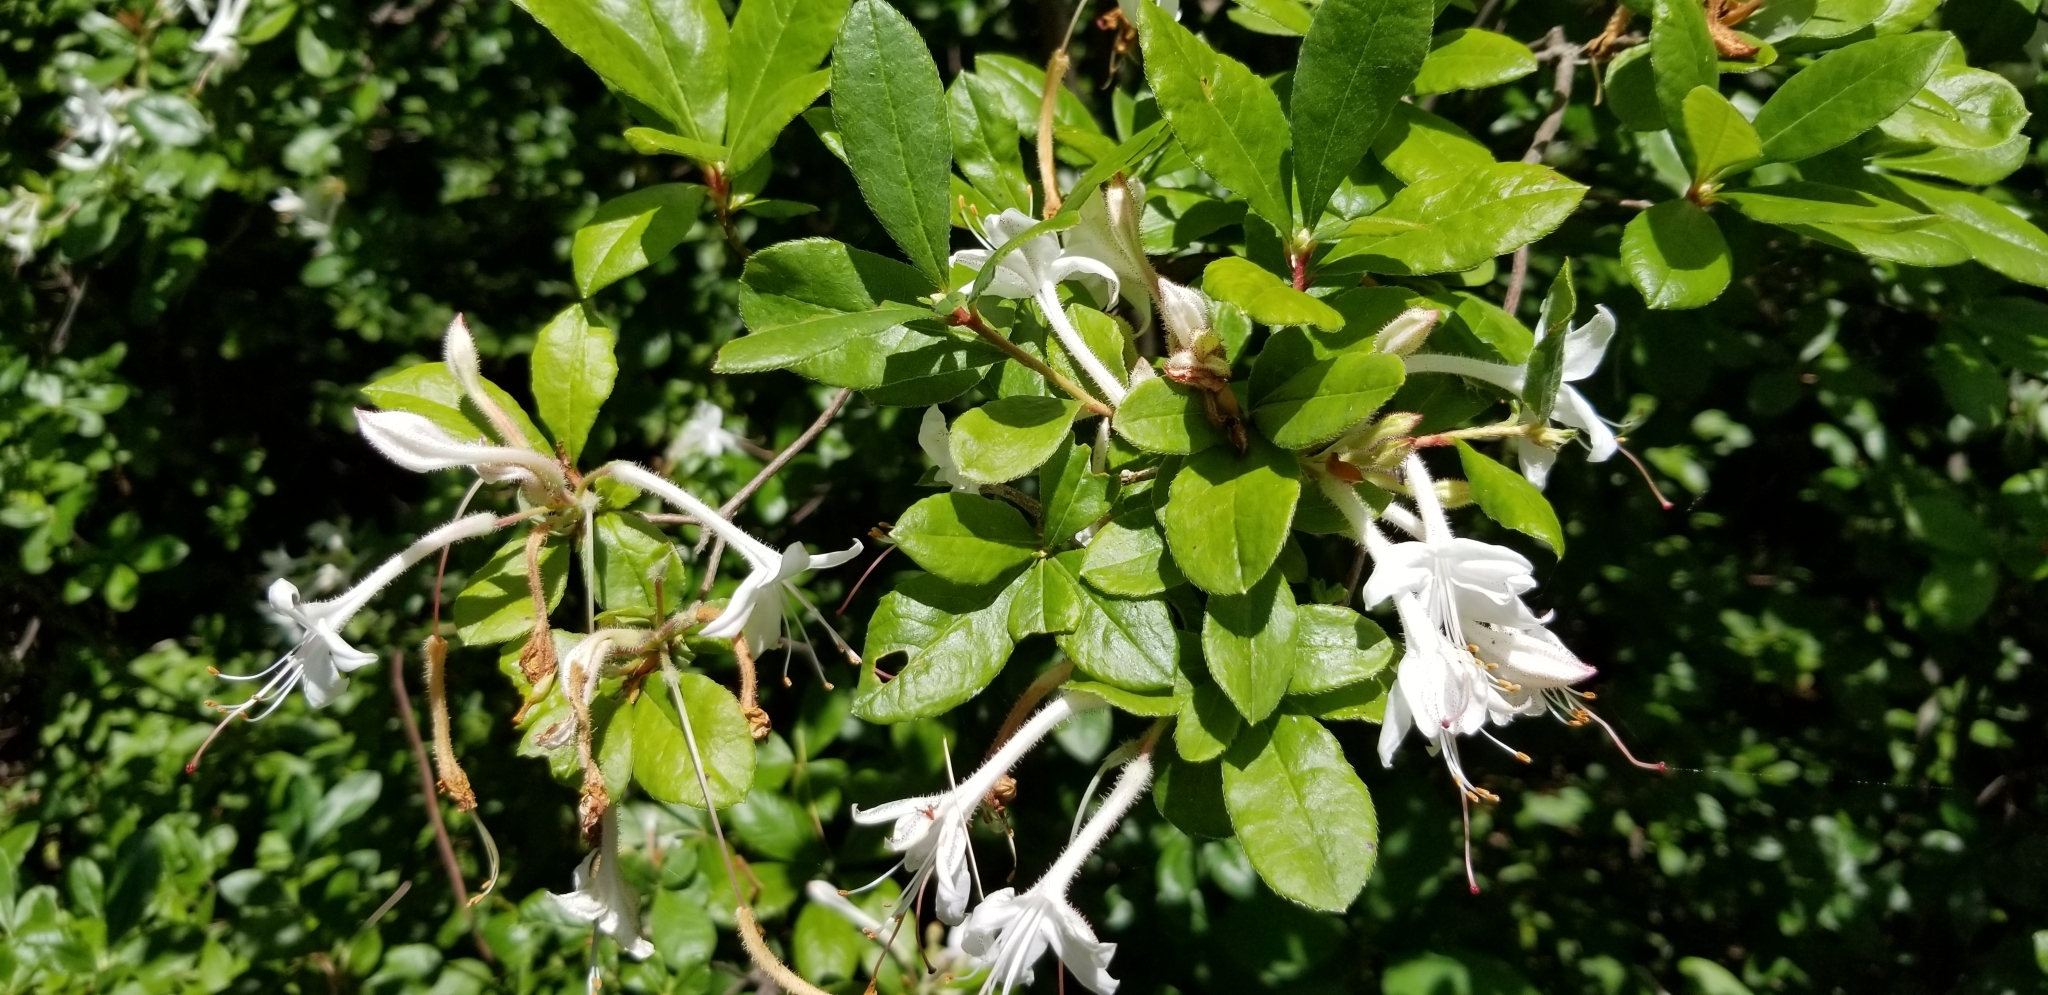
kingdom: Plantae
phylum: Tracheophyta
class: Magnoliopsida
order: Ericales
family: Ericaceae
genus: Rhododendron
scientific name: Rhododendron viscosum
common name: Clammy azalea
